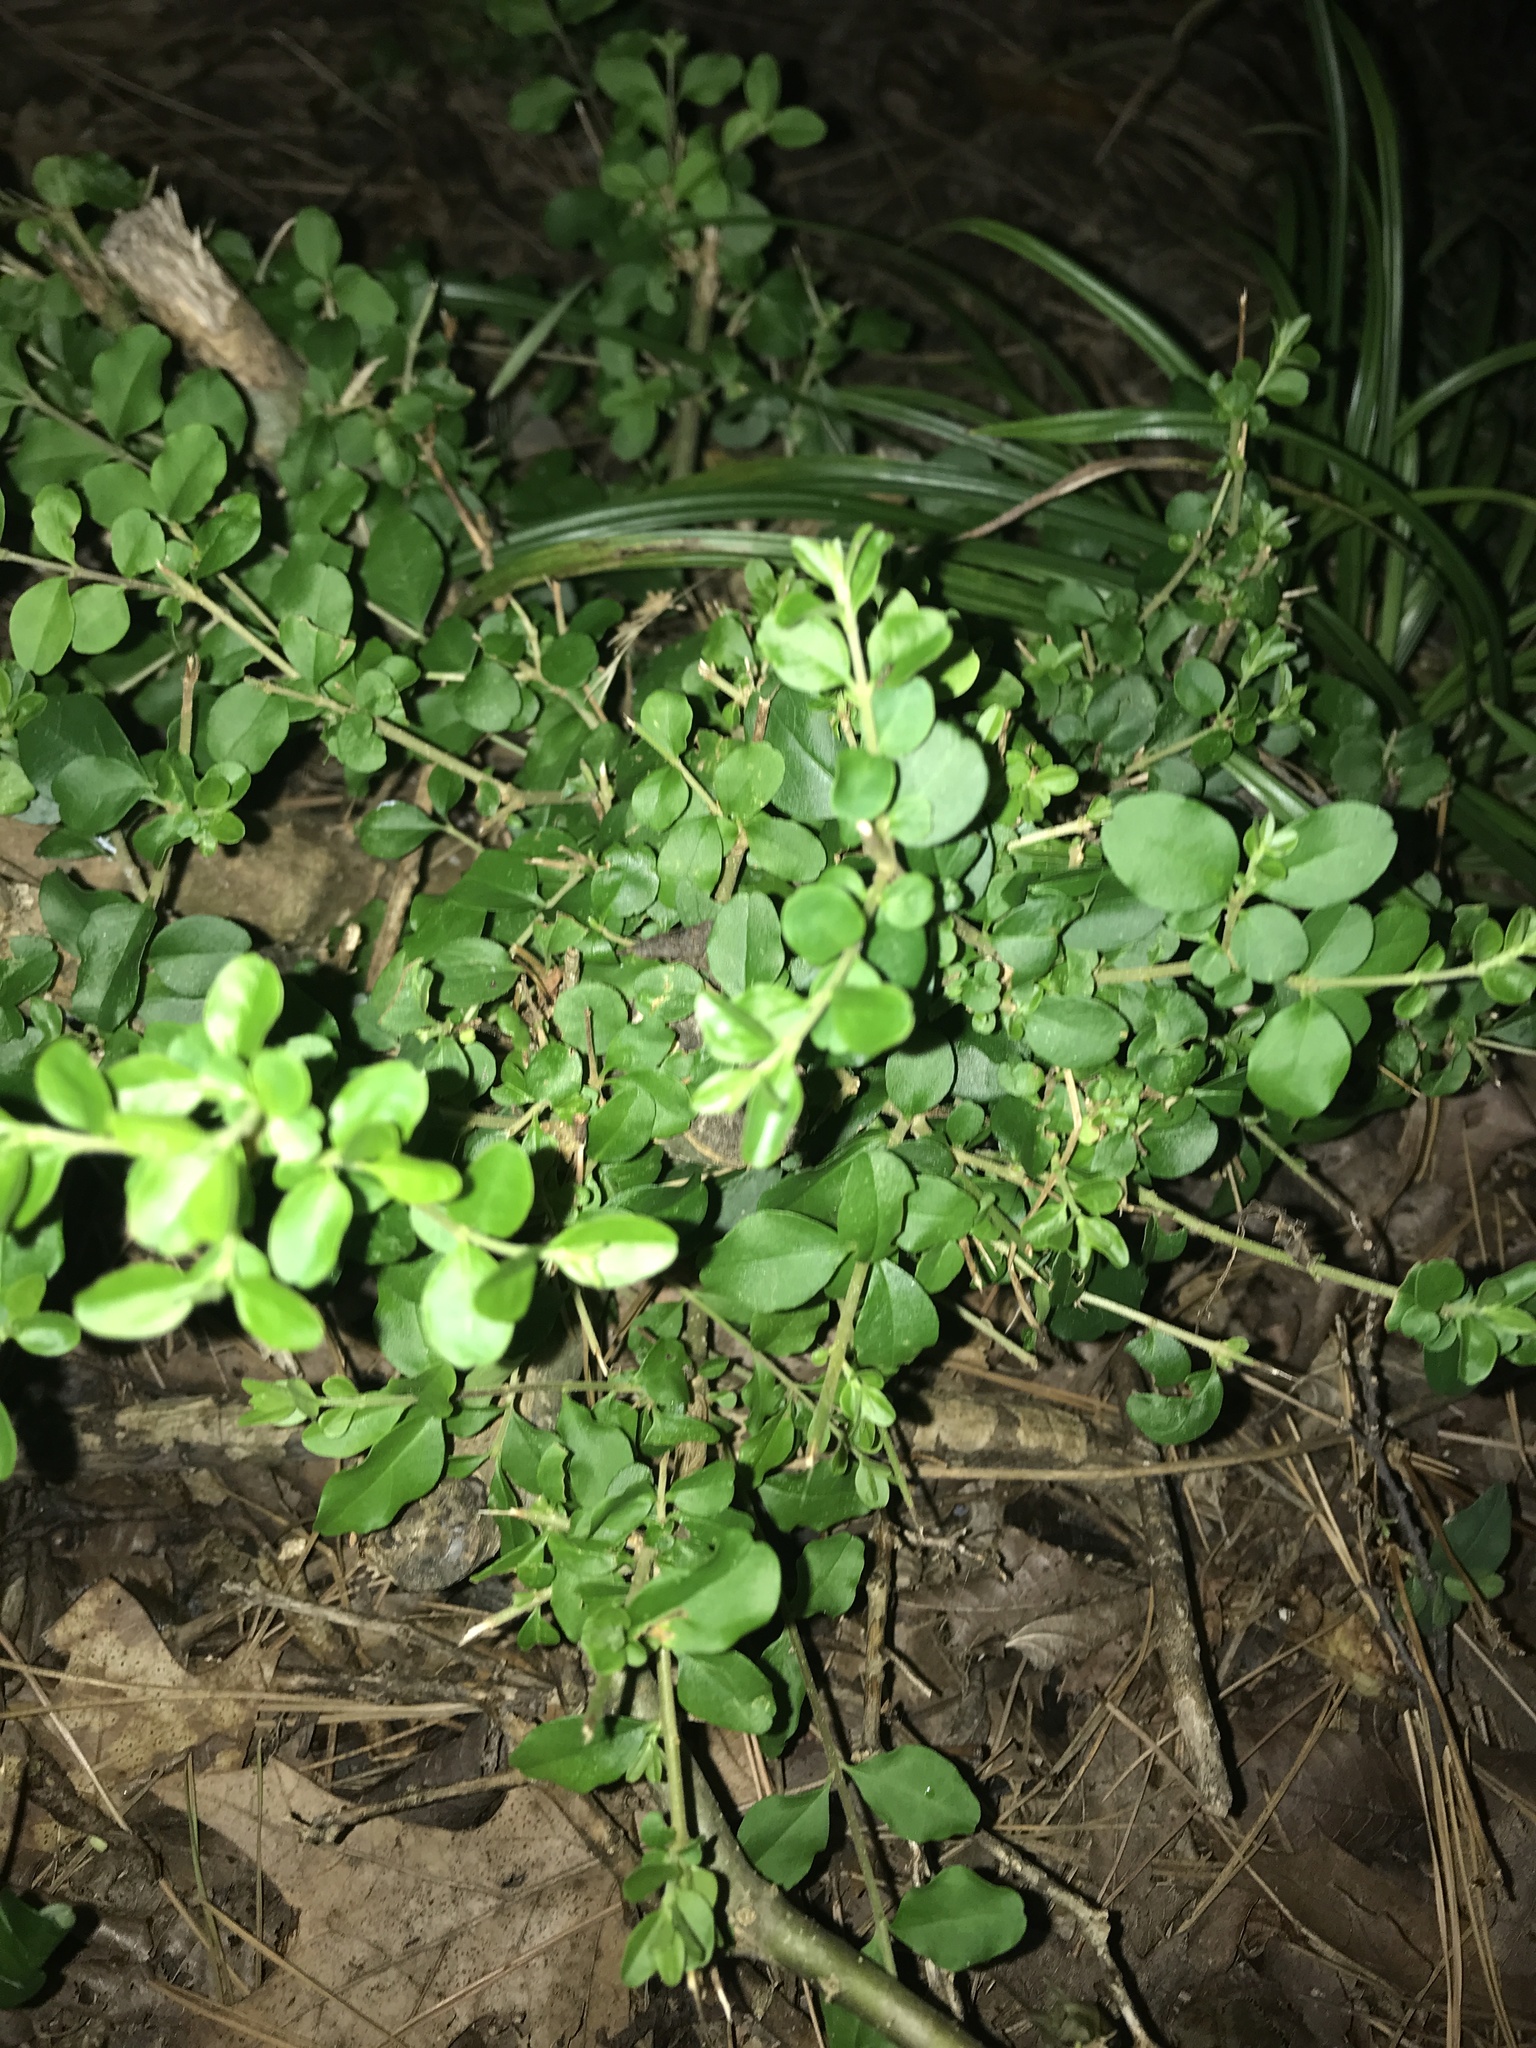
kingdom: Plantae
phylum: Tracheophyta
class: Magnoliopsida
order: Lamiales
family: Oleaceae
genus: Ligustrum
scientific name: Ligustrum sinense
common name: Chinese privet
